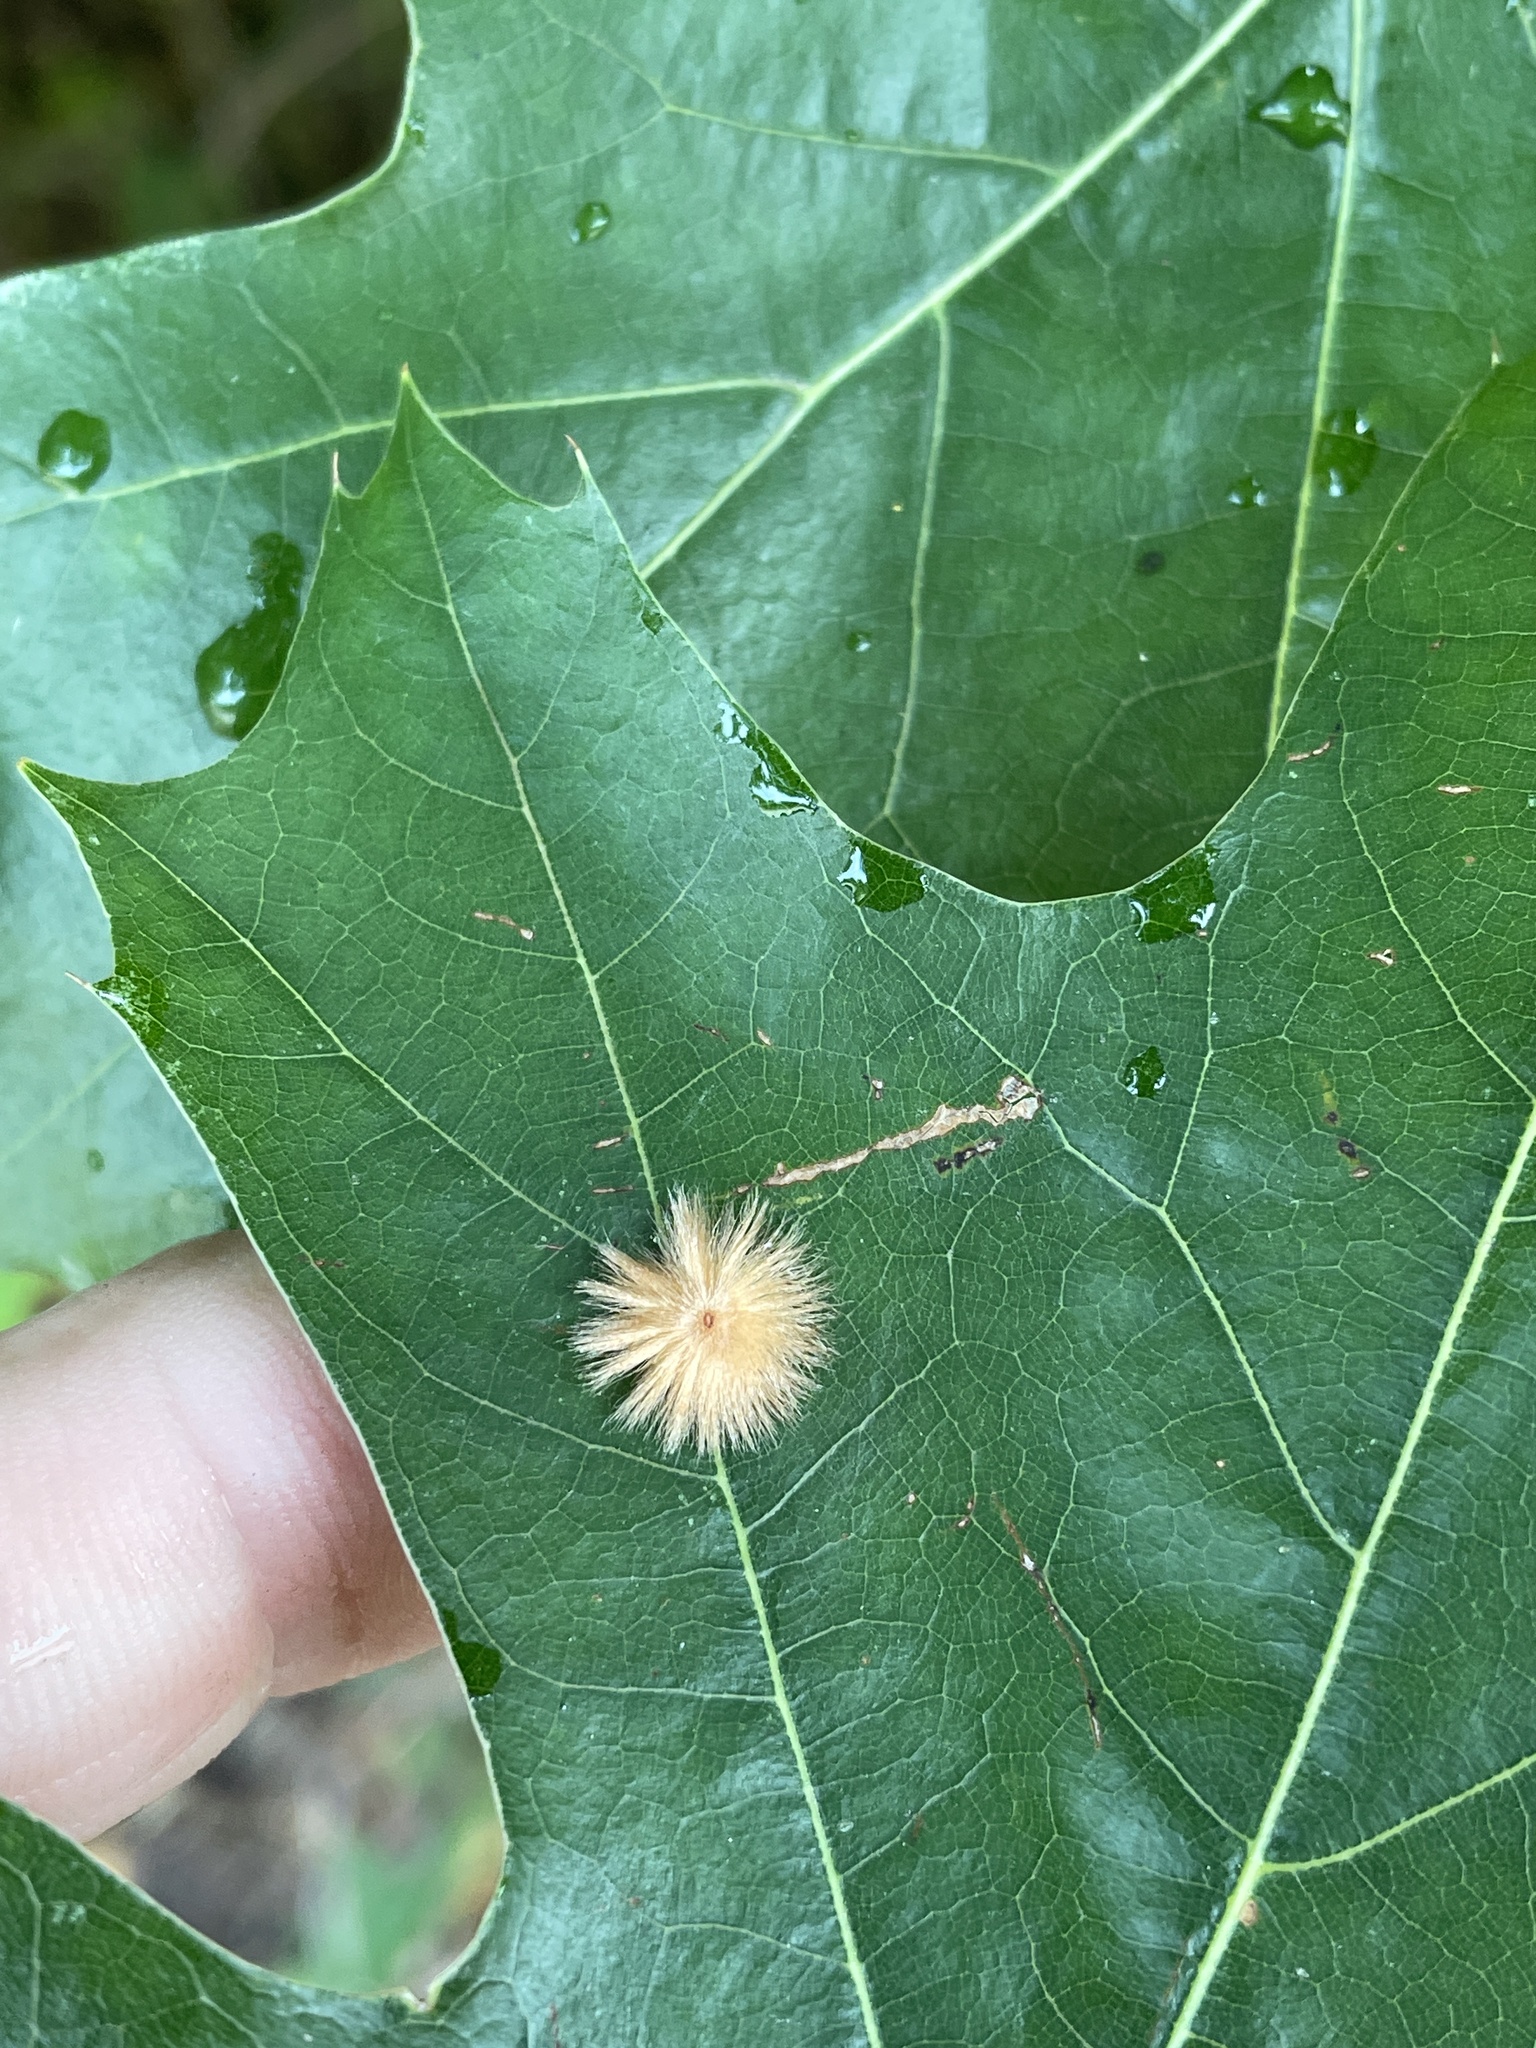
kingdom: Animalia
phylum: Arthropoda
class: Insecta
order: Hymenoptera
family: Cynipidae
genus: Callirhytis
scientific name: Callirhytis
